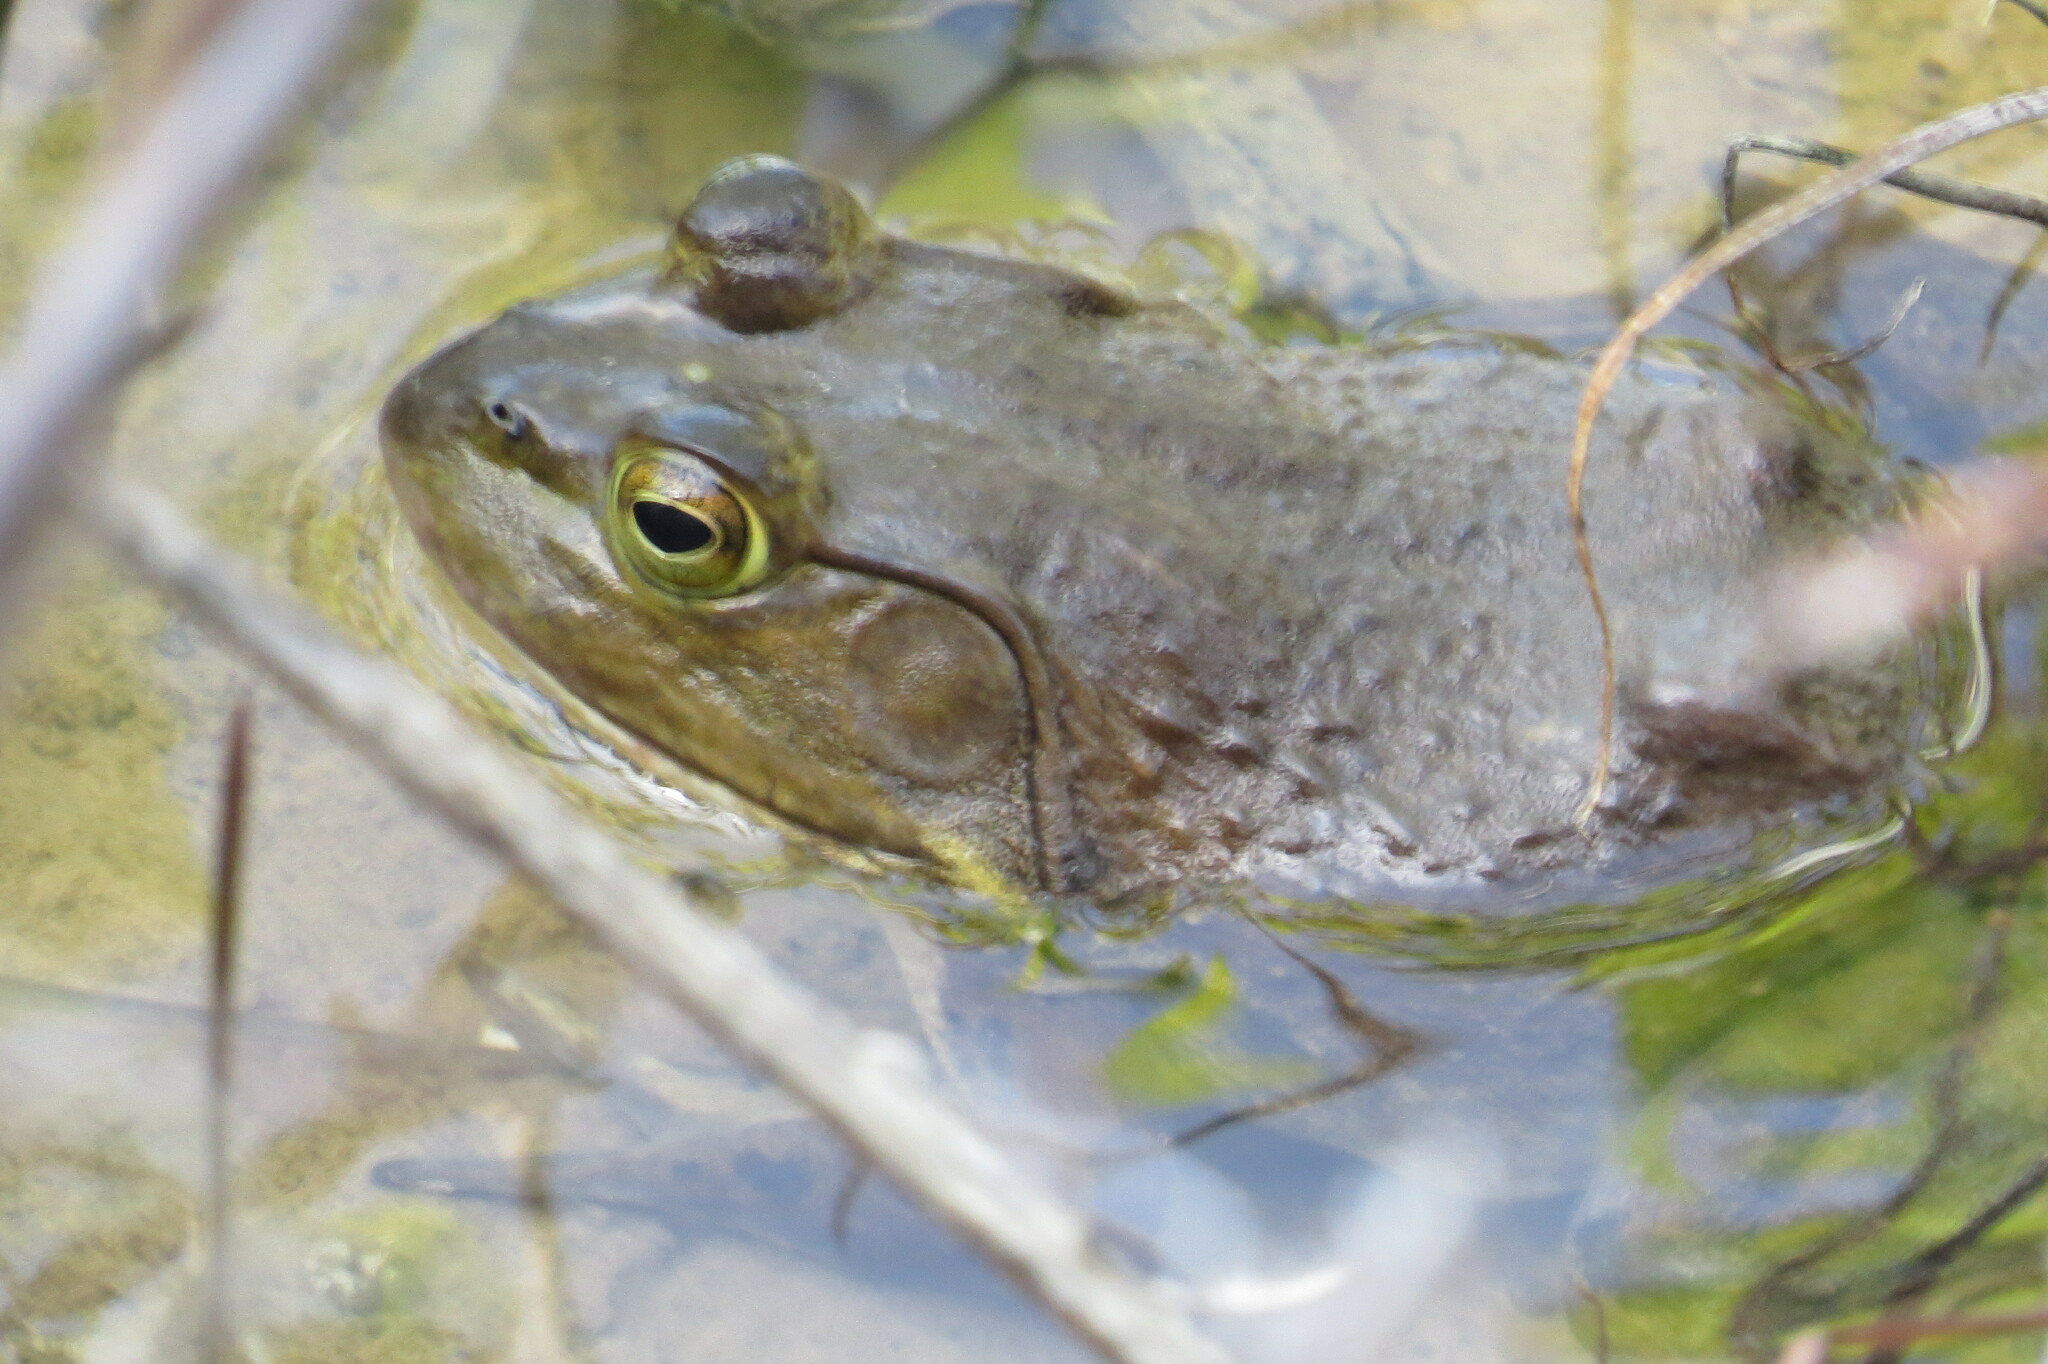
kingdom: Animalia
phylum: Chordata
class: Amphibia
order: Anura
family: Ranidae
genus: Lithobates
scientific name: Lithobates catesbeianus
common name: American bullfrog
